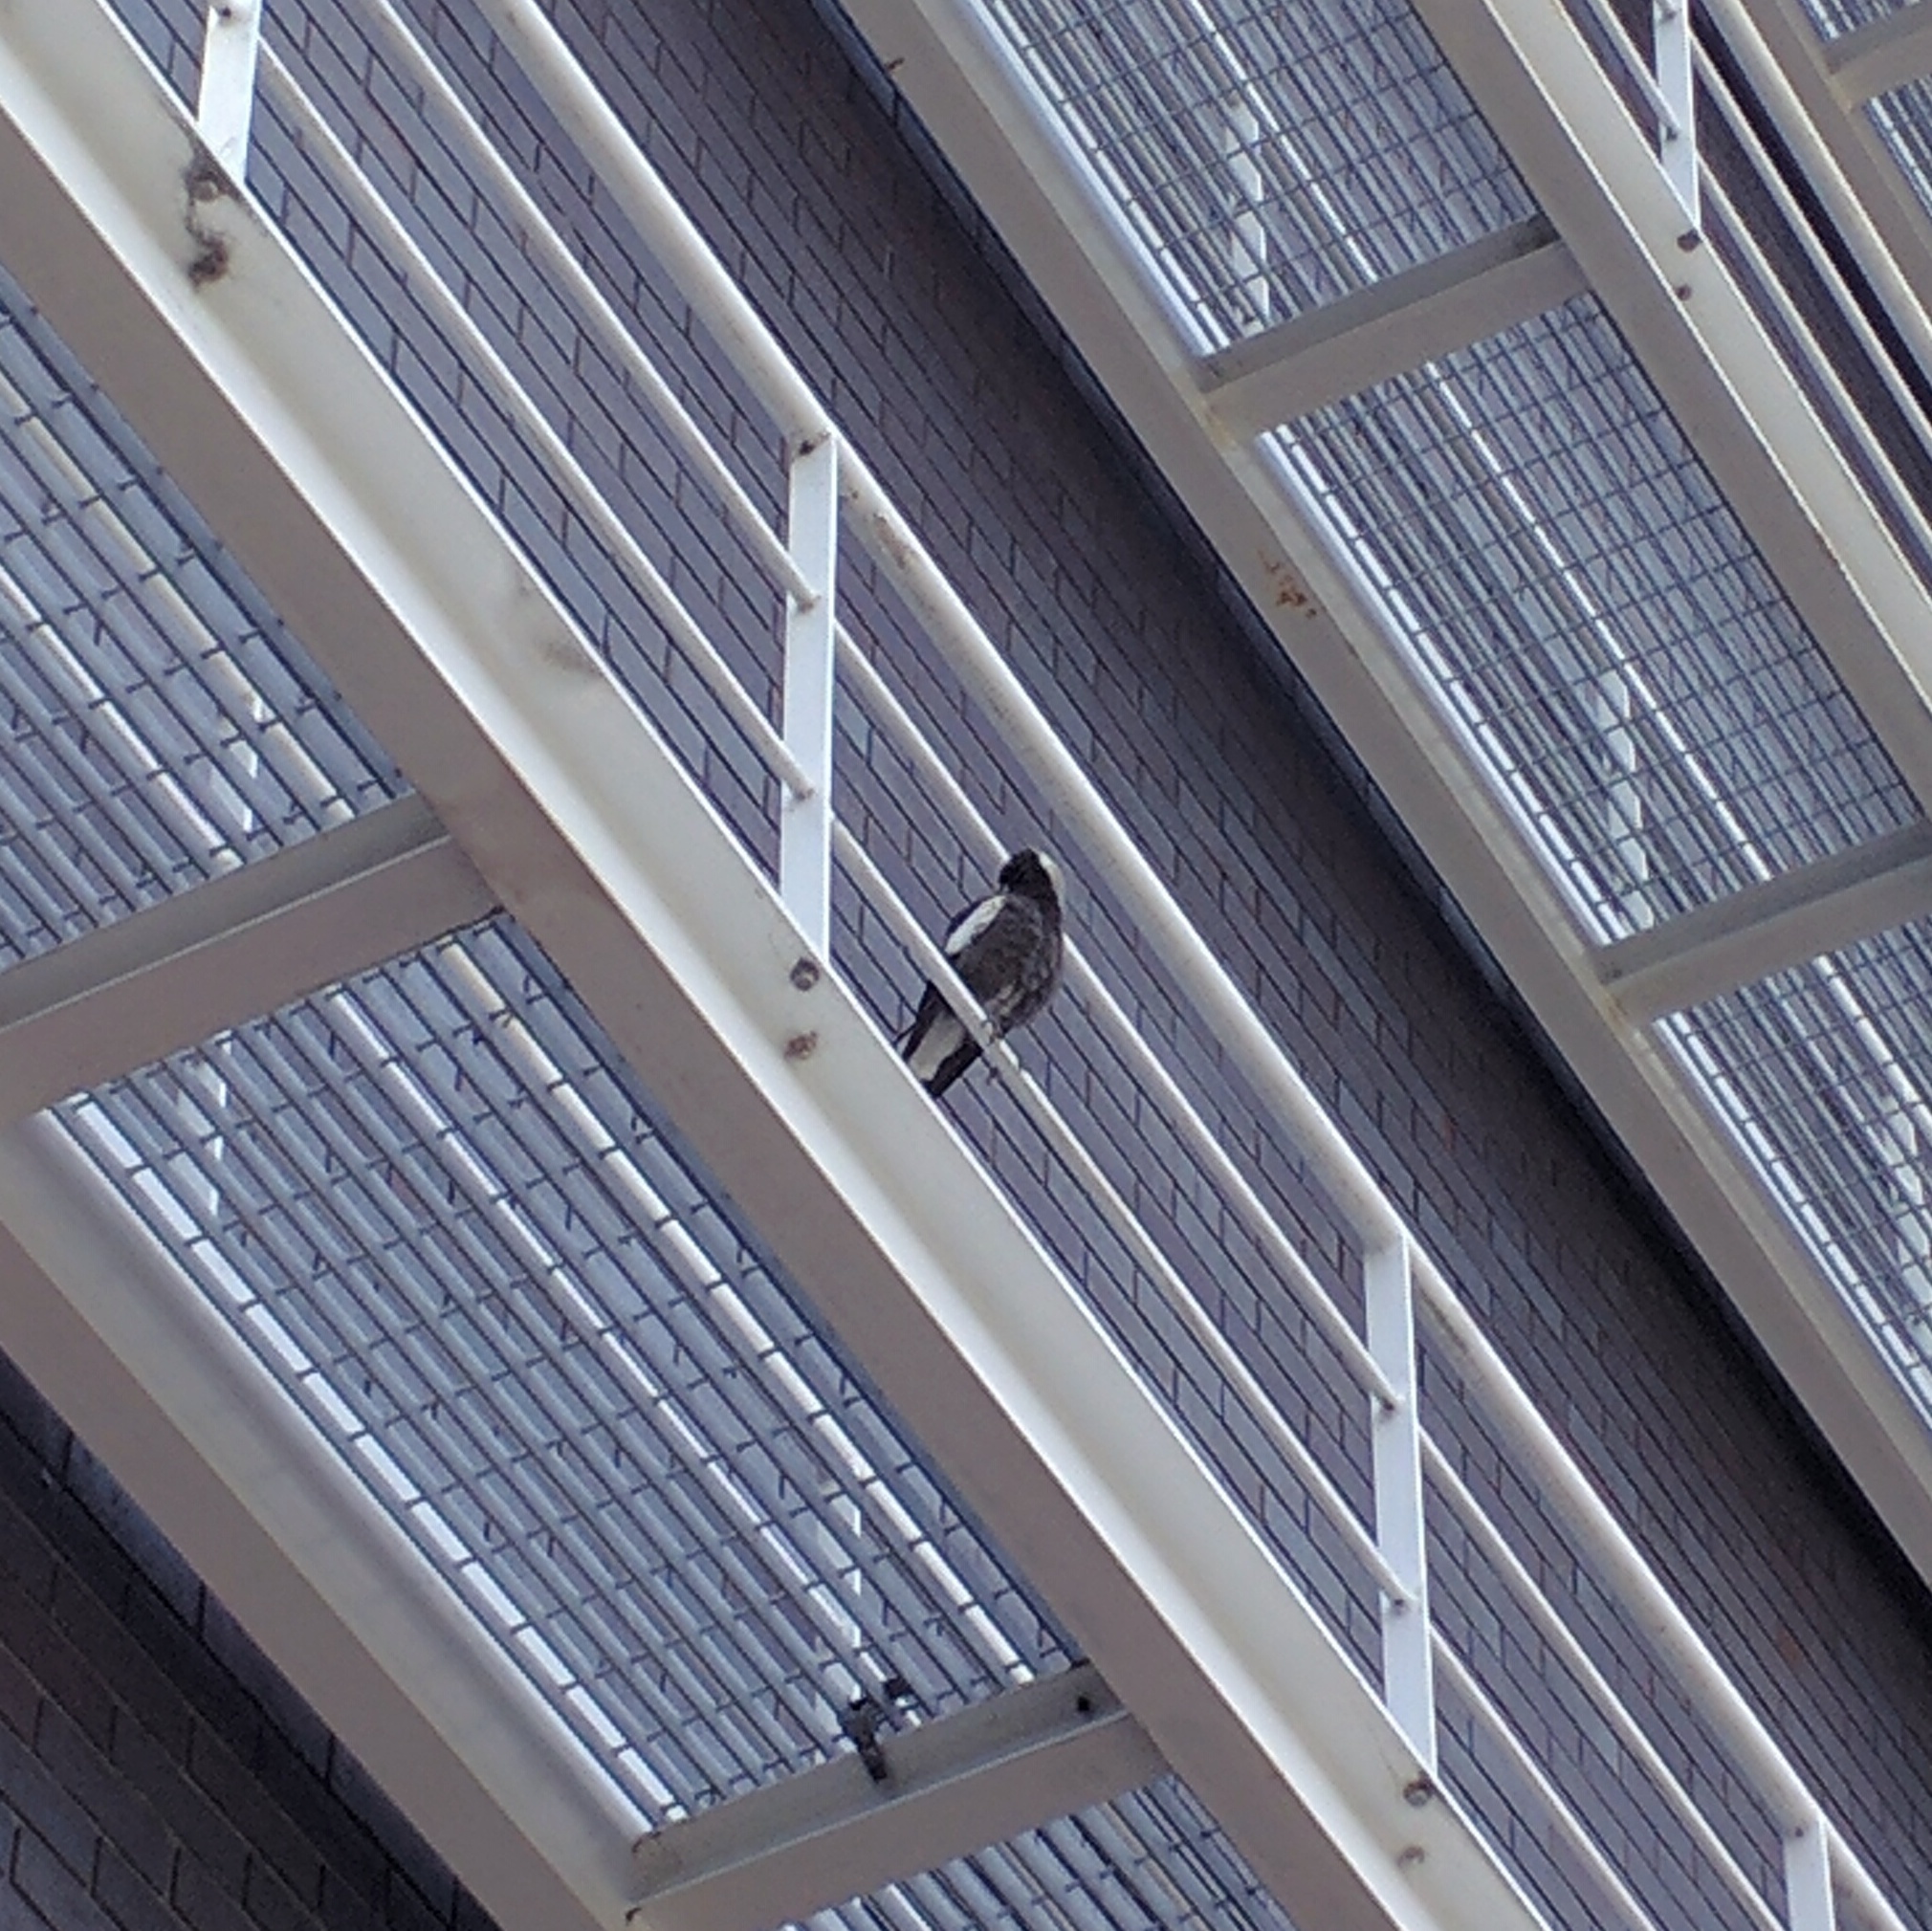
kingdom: Animalia
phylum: Chordata
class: Aves
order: Passeriformes
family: Cracticidae
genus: Gymnorhina
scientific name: Gymnorhina tibicen
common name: Australian magpie
